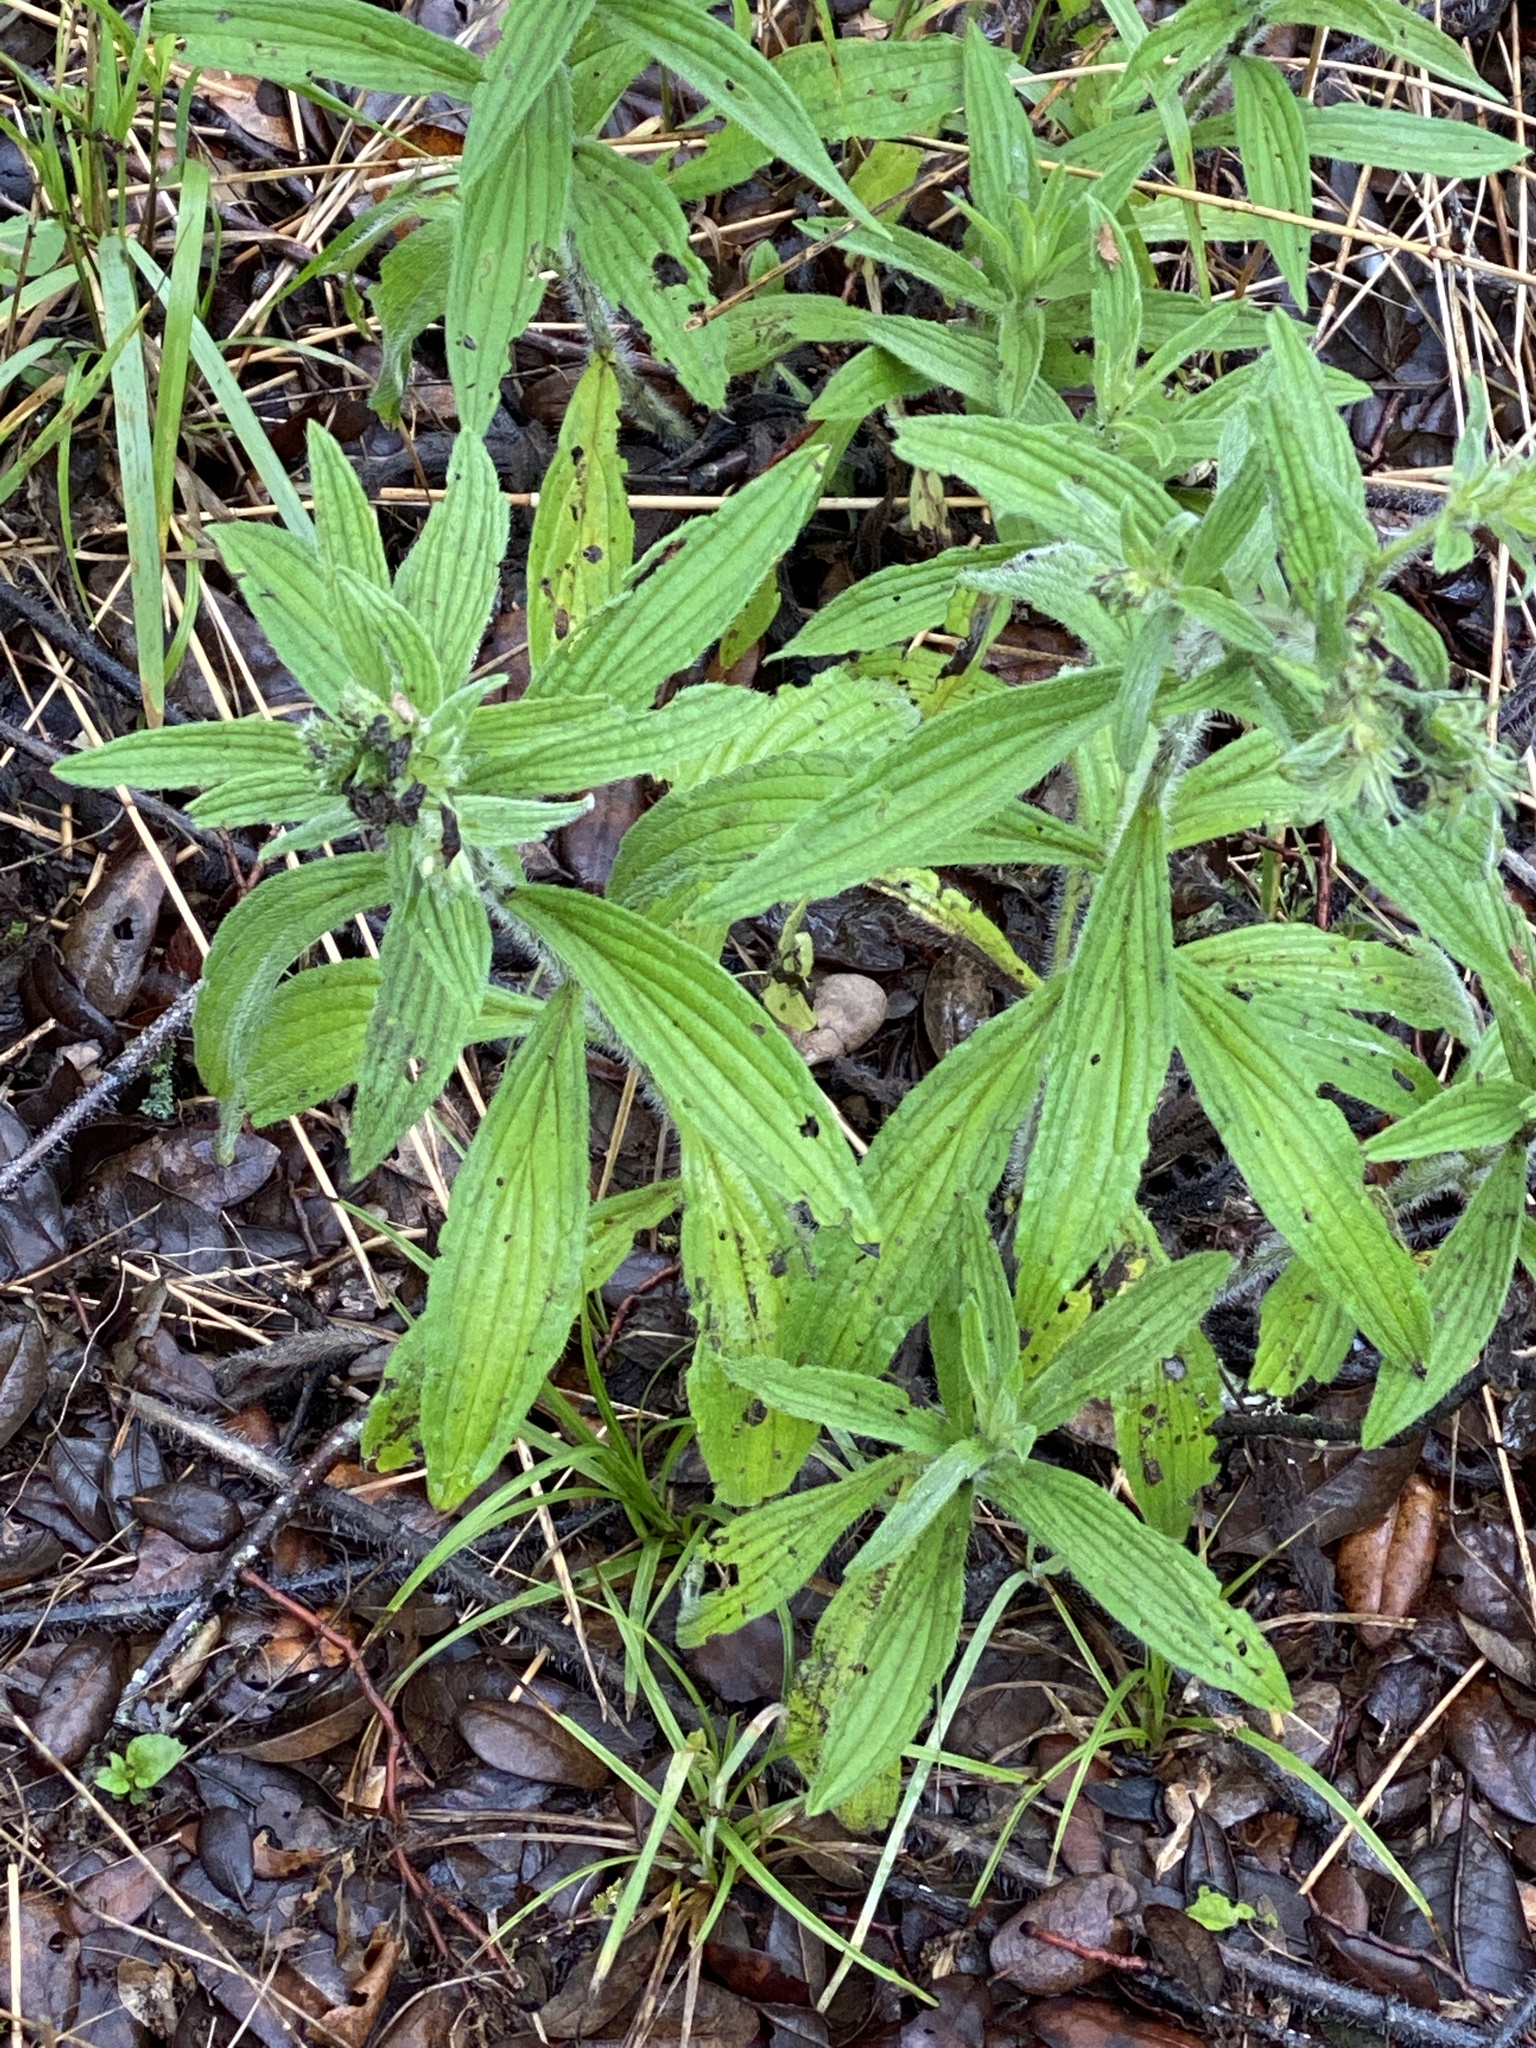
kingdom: Plantae
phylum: Tracheophyta
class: Magnoliopsida
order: Boraginales
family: Boraginaceae
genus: Lithospermum
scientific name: Lithospermum caroliniense
